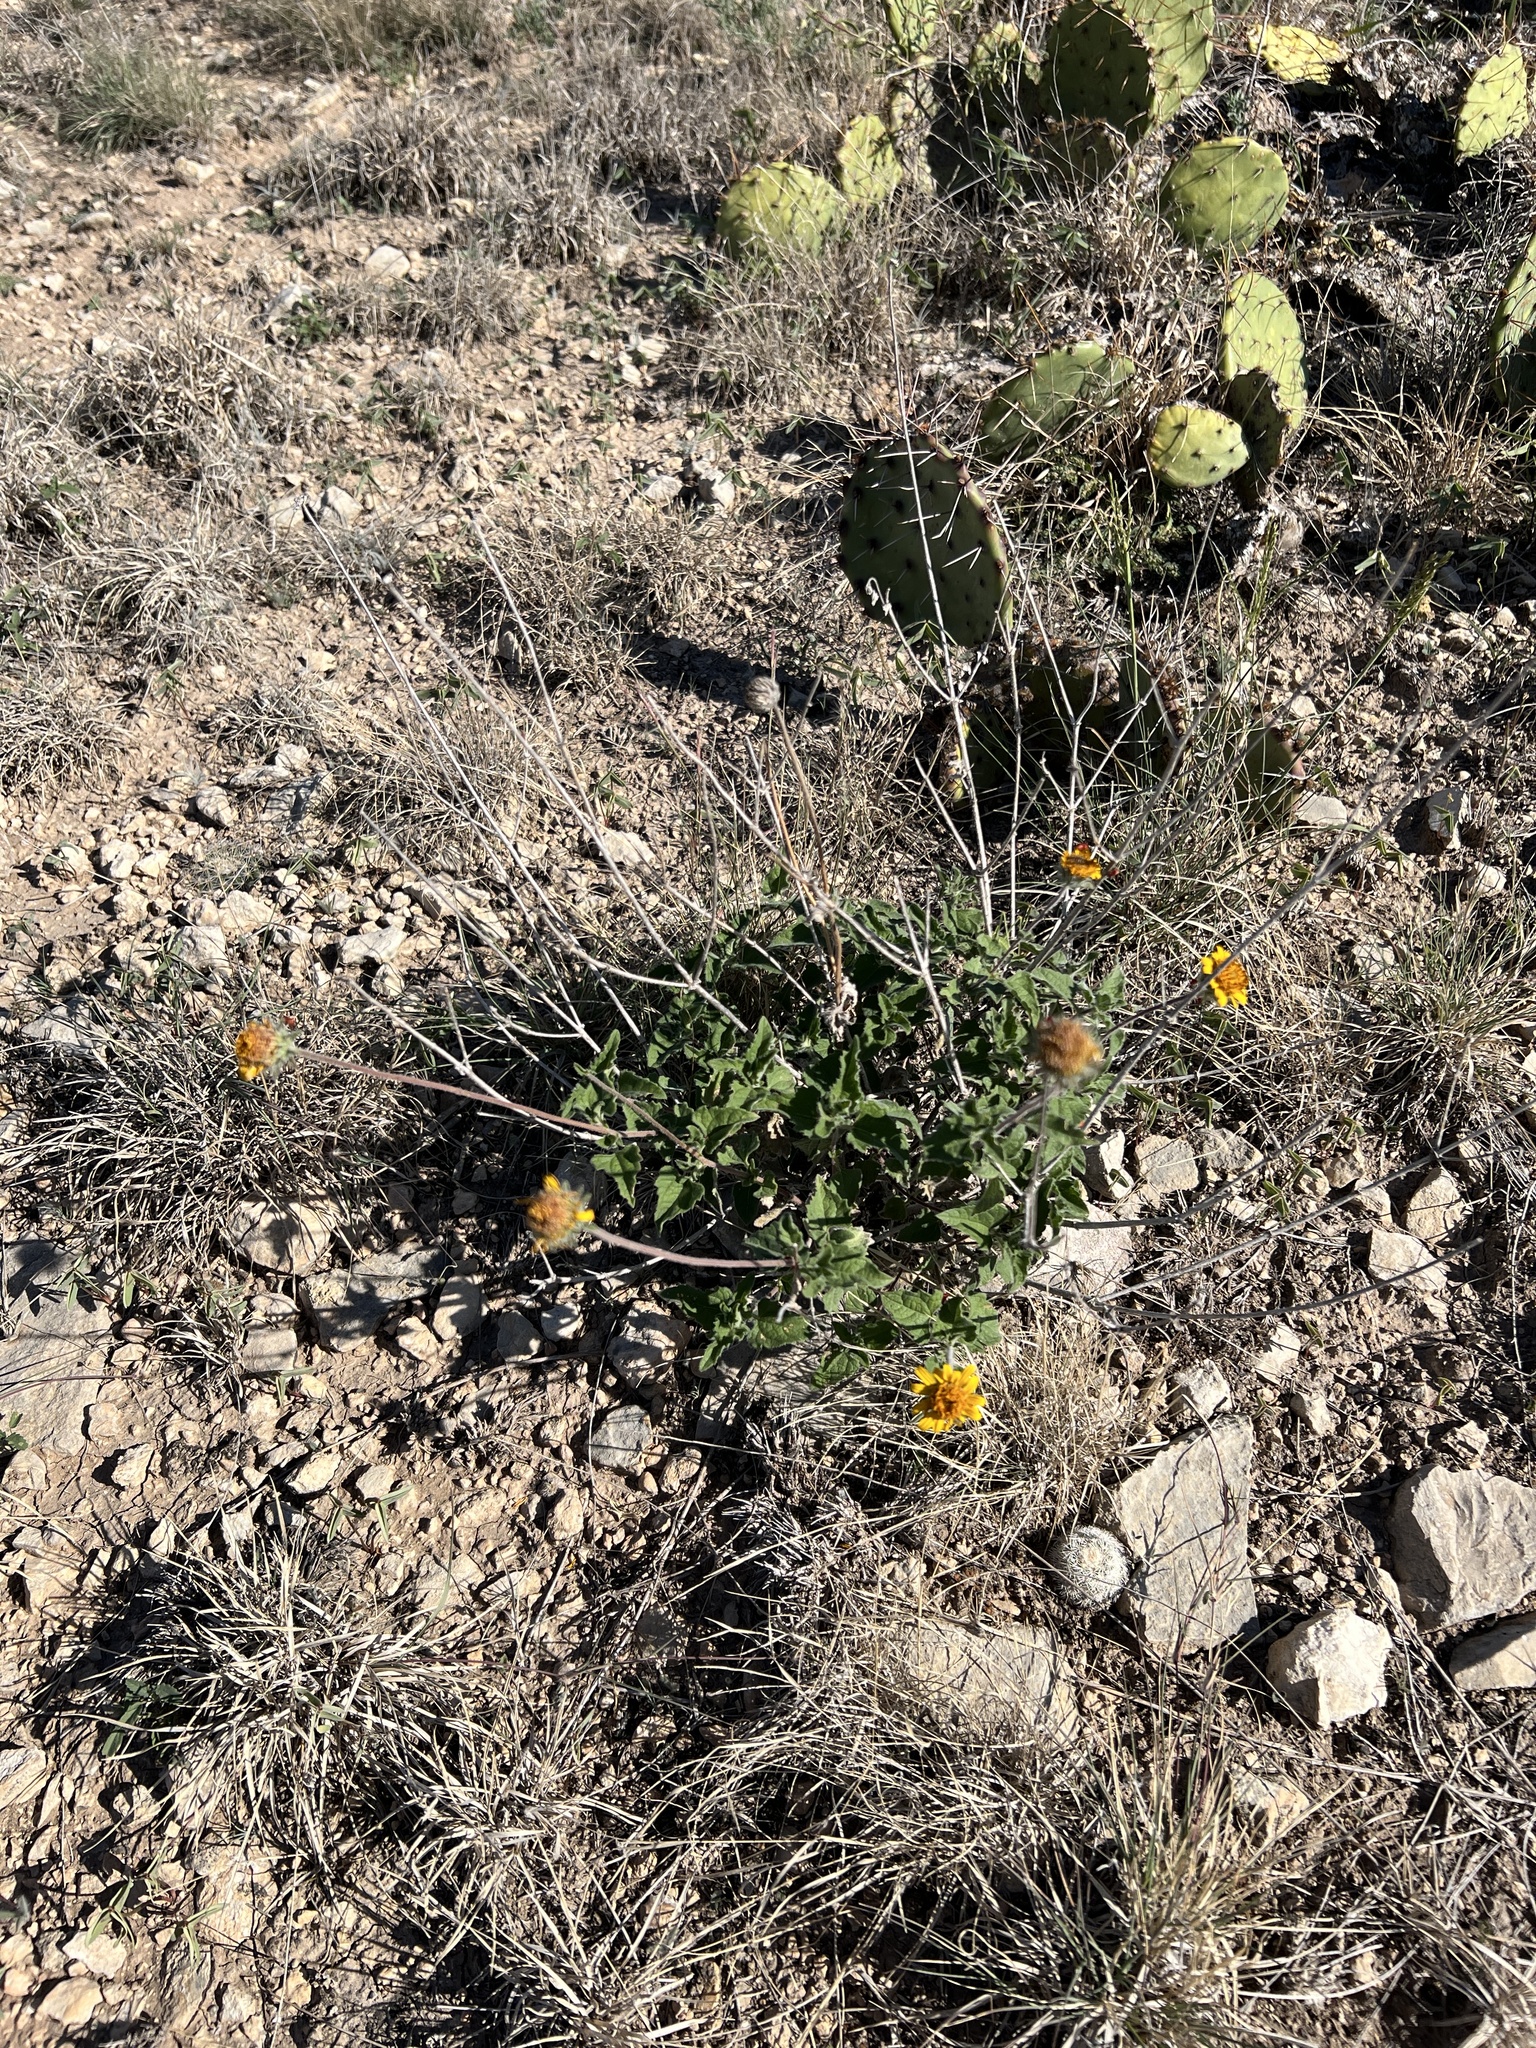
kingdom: Plantae
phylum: Tracheophyta
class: Magnoliopsida
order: Asterales
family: Asteraceae
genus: Simsia
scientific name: Simsia calva
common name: Awnless bush-sunflower
